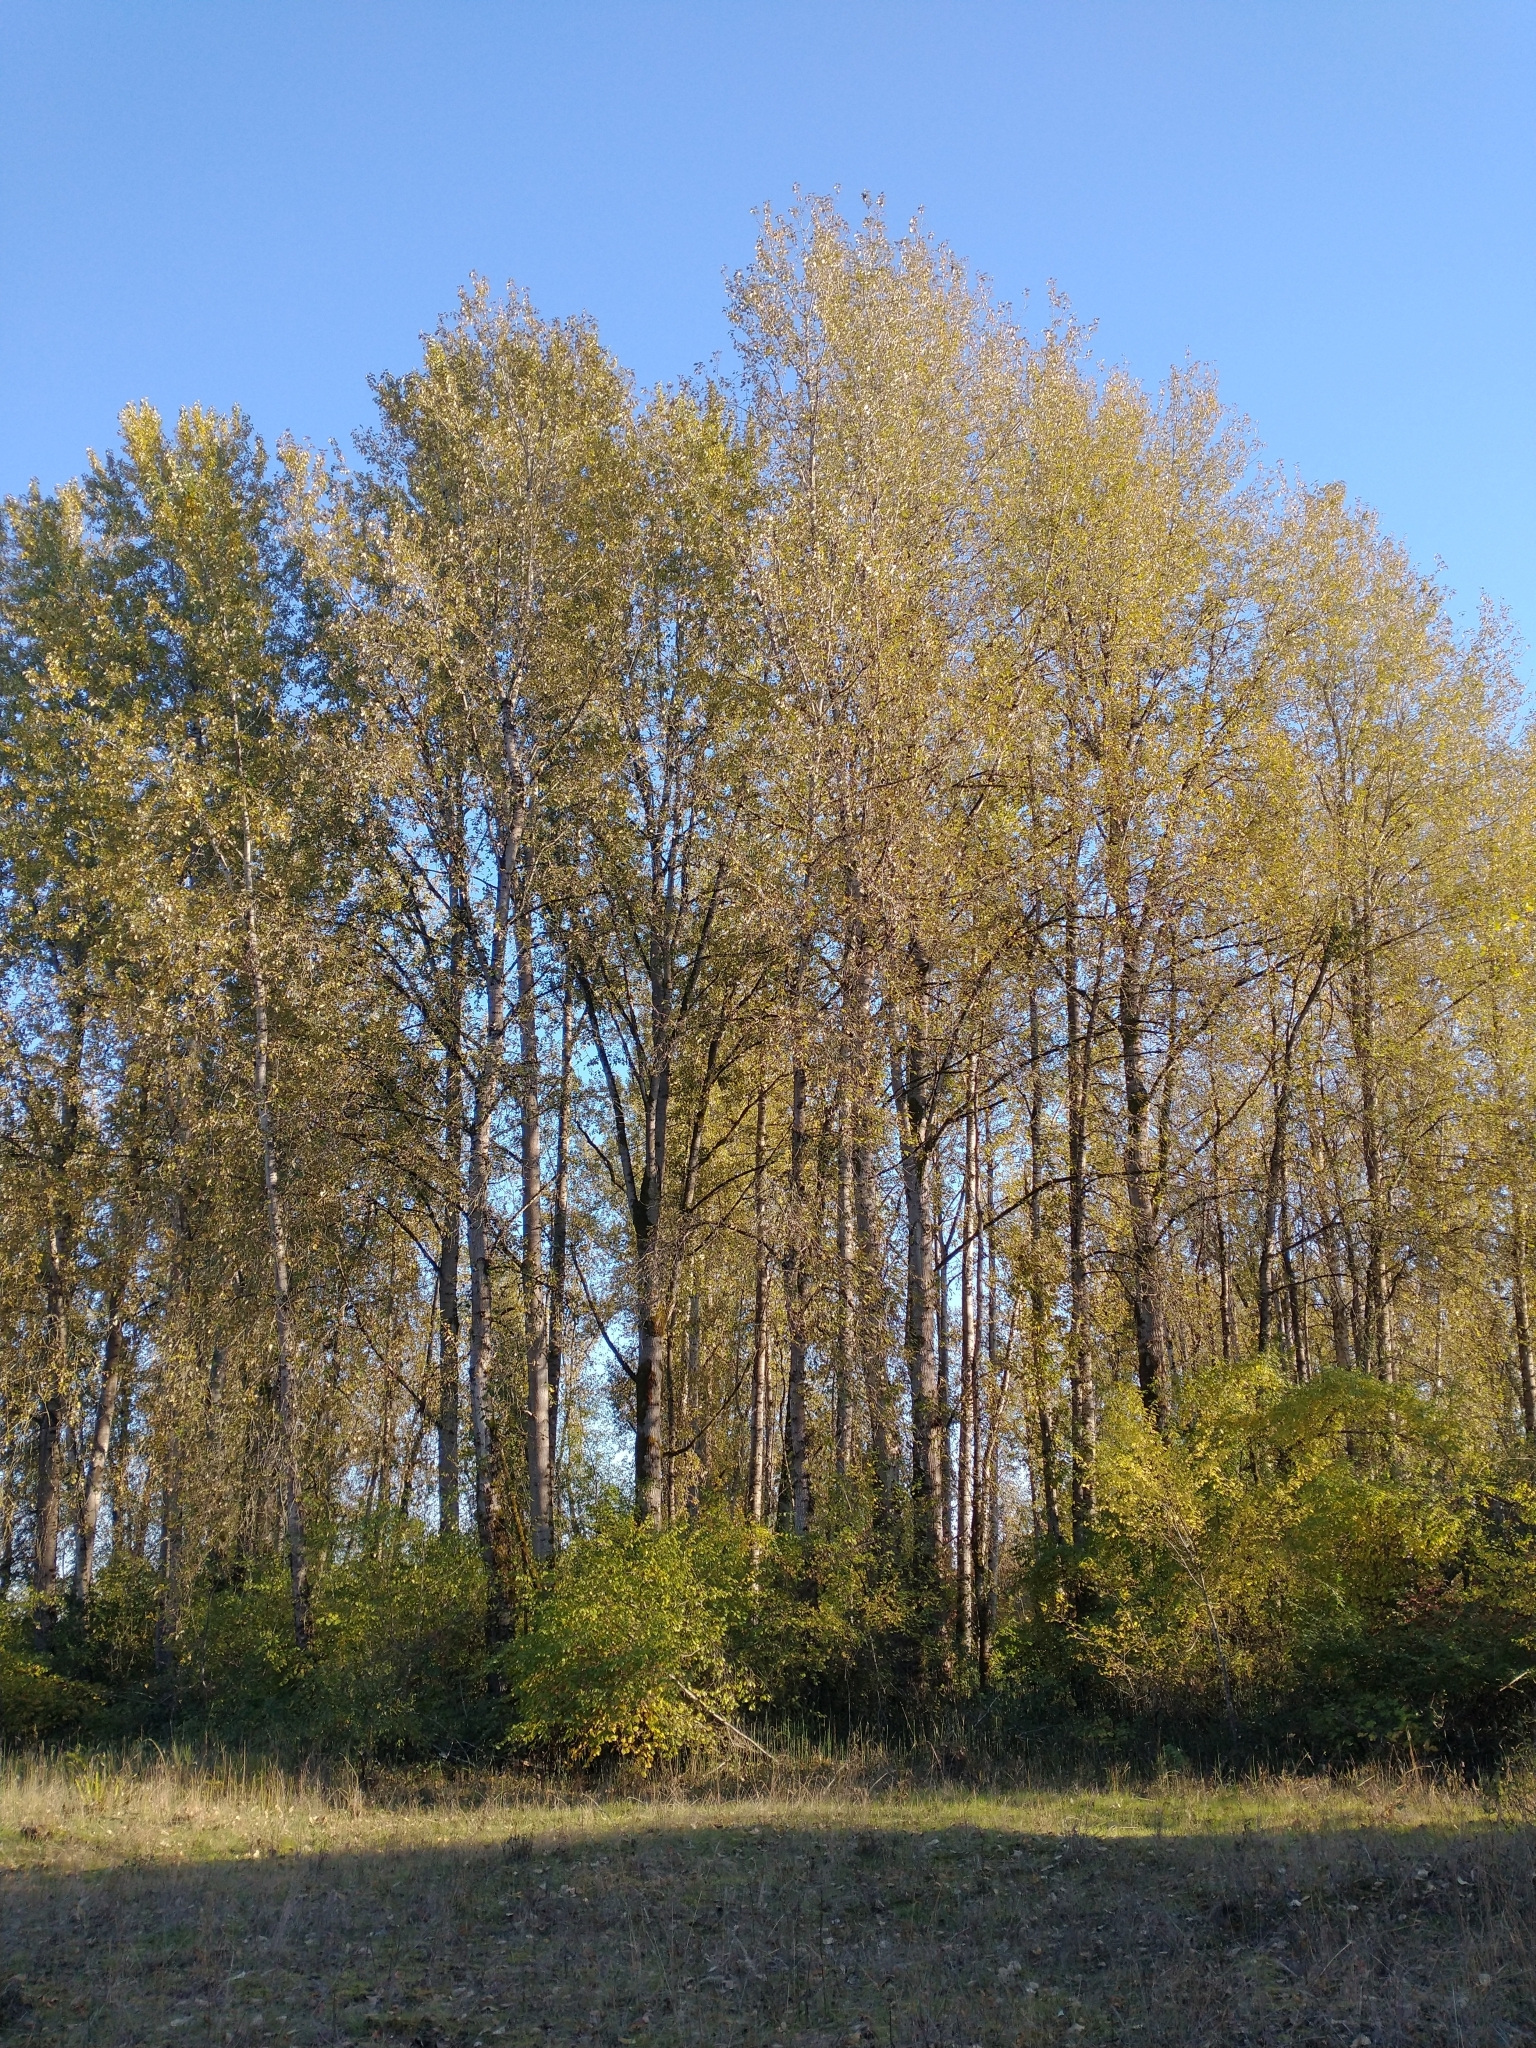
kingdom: Plantae
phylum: Tracheophyta
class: Magnoliopsida
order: Malpighiales
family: Salicaceae
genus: Populus
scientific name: Populus trichocarpa
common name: Black cottonwood
